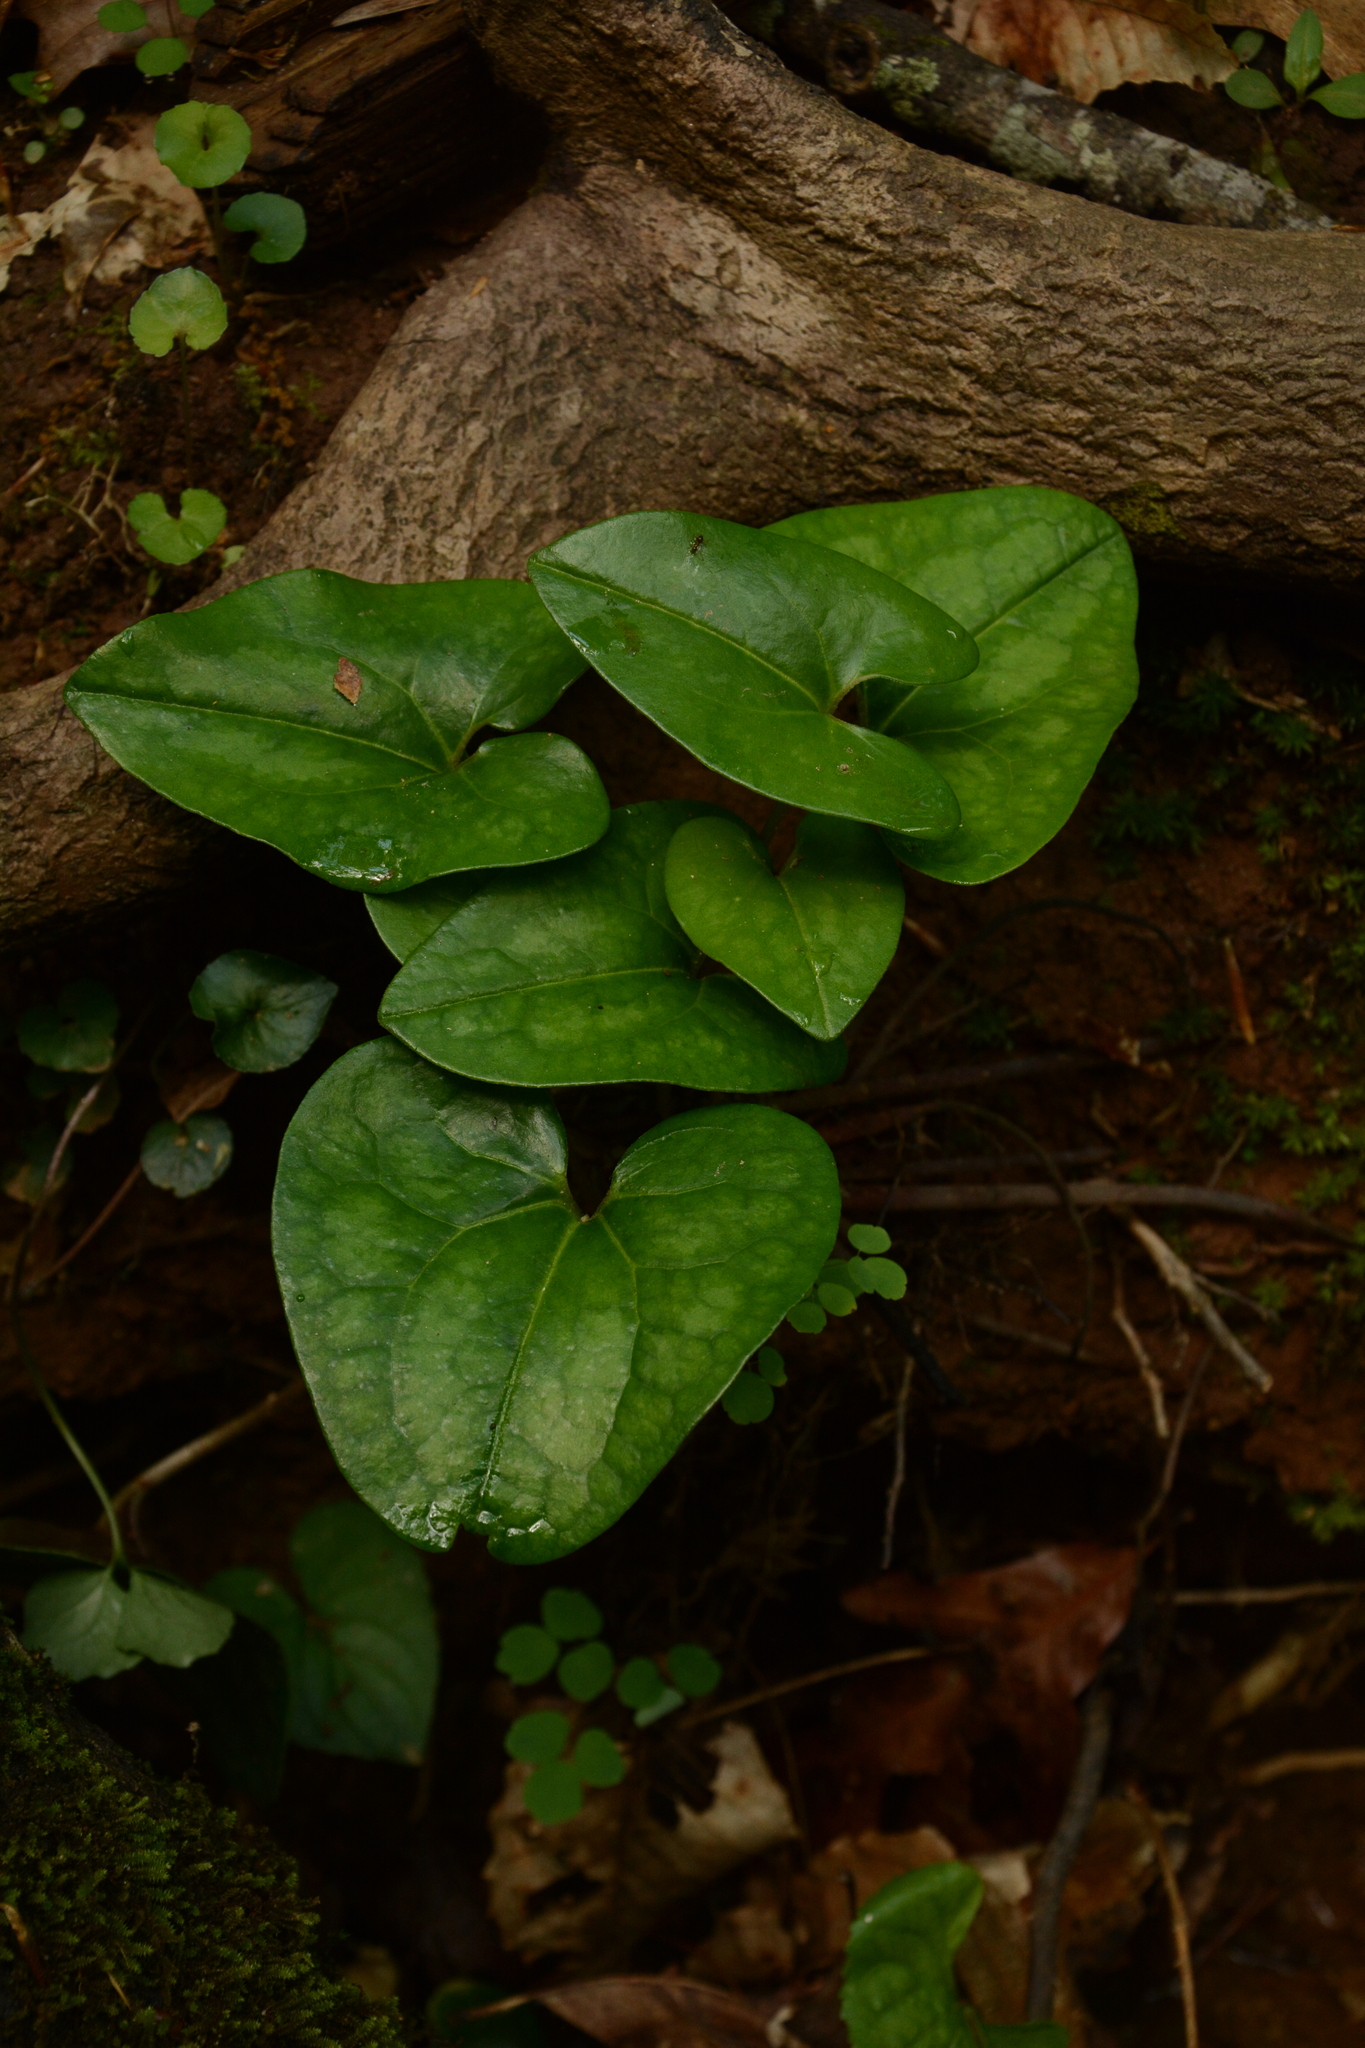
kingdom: Plantae
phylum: Tracheophyta
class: Magnoliopsida
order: Piperales
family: Aristolochiaceae
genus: Hexastylis
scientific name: Hexastylis arifolia
